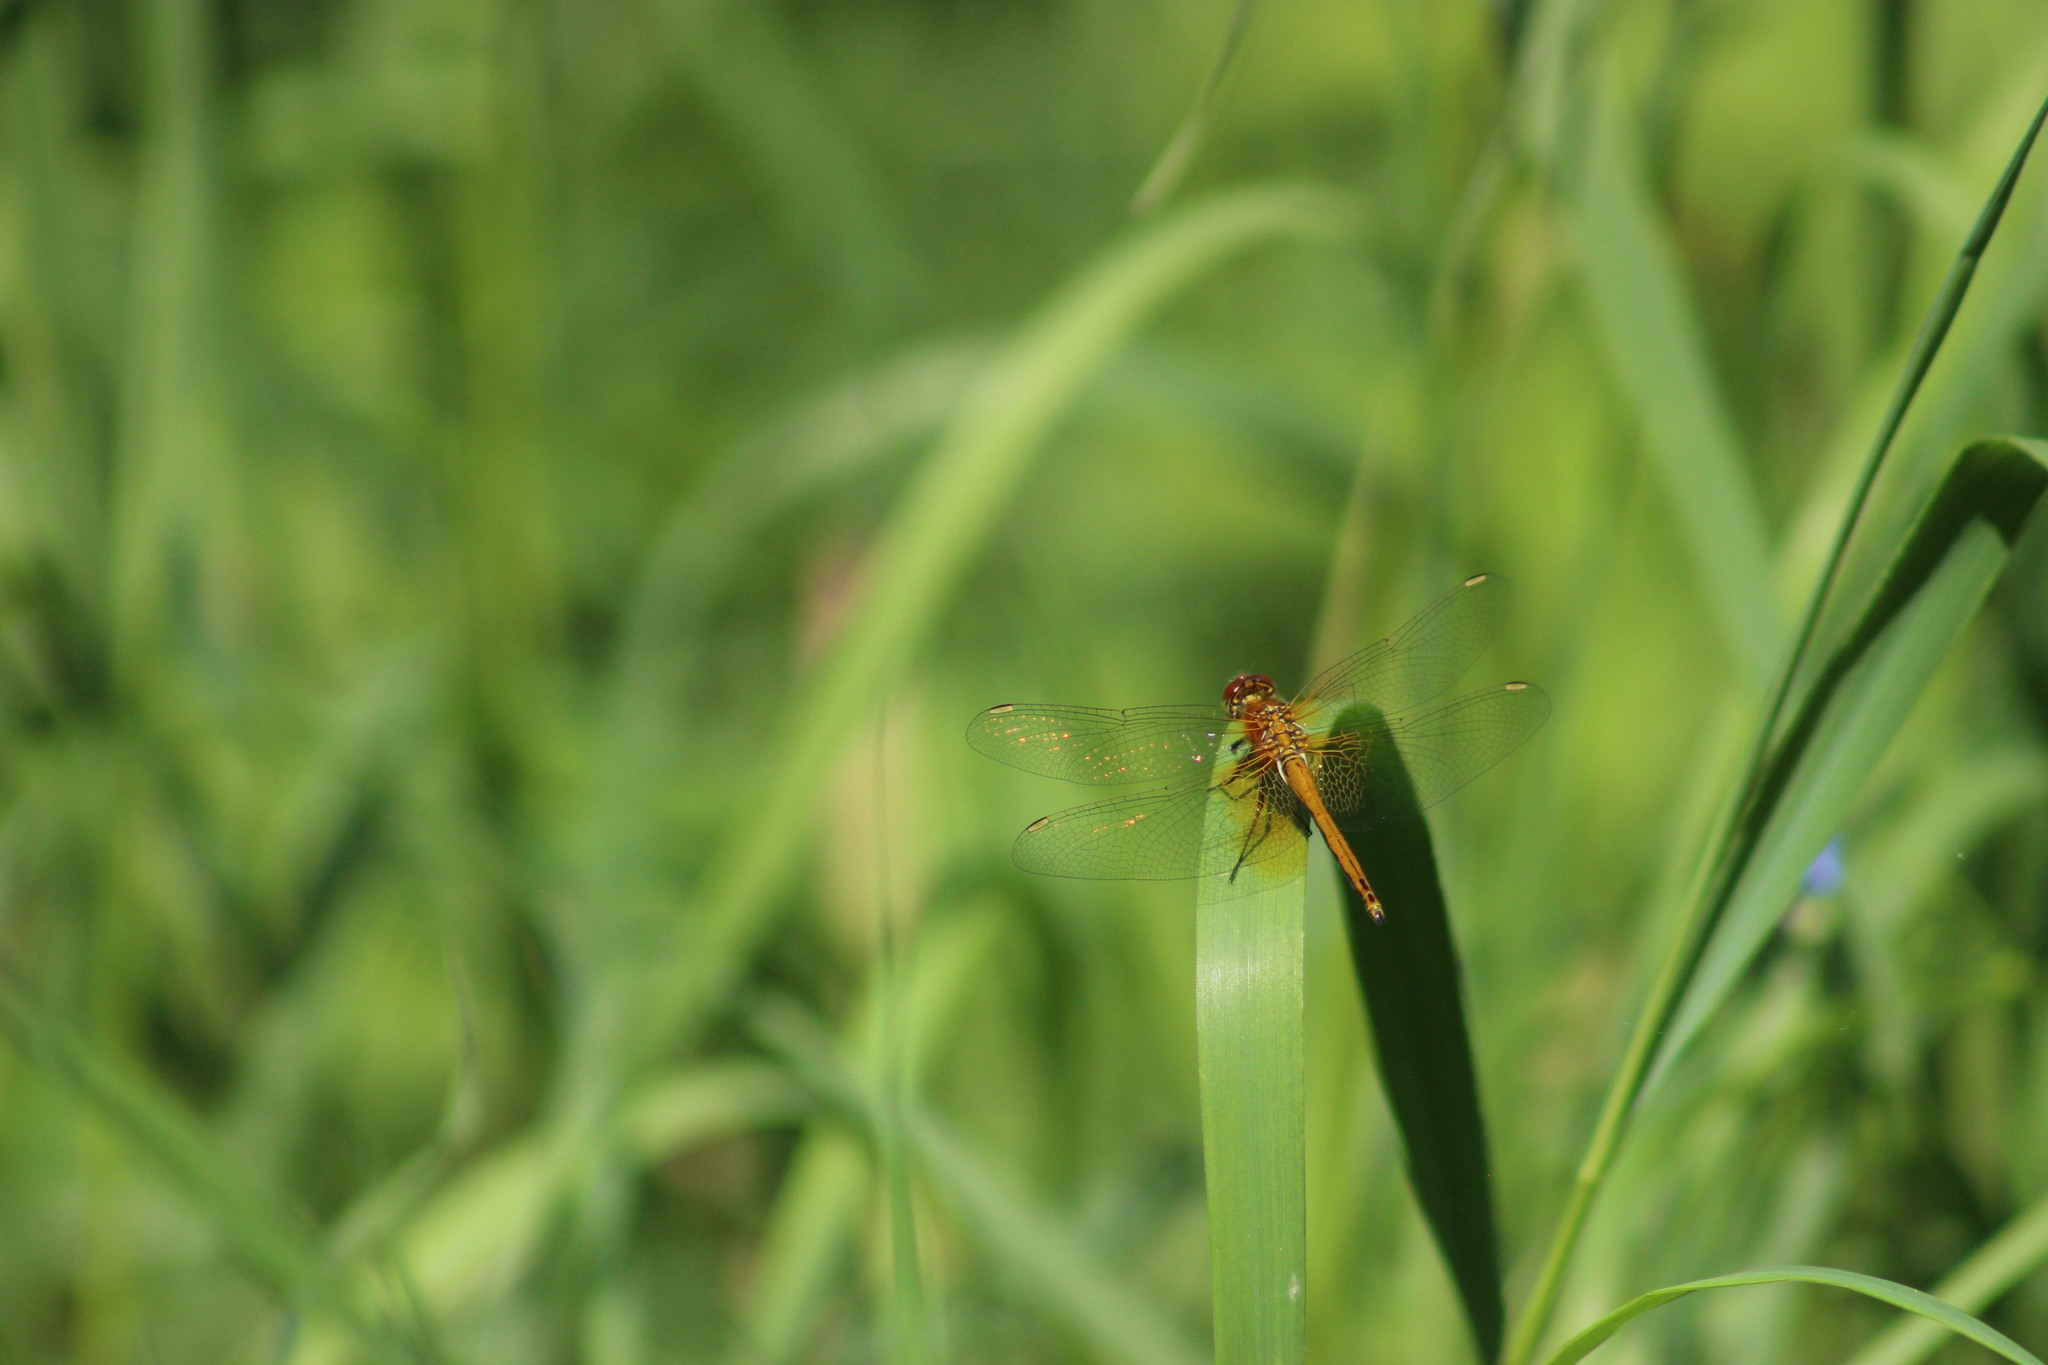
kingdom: Animalia
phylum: Arthropoda
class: Insecta
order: Odonata
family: Libellulidae
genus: Sympetrum
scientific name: Sympetrum flaveolum
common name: Yellow-winged darter
